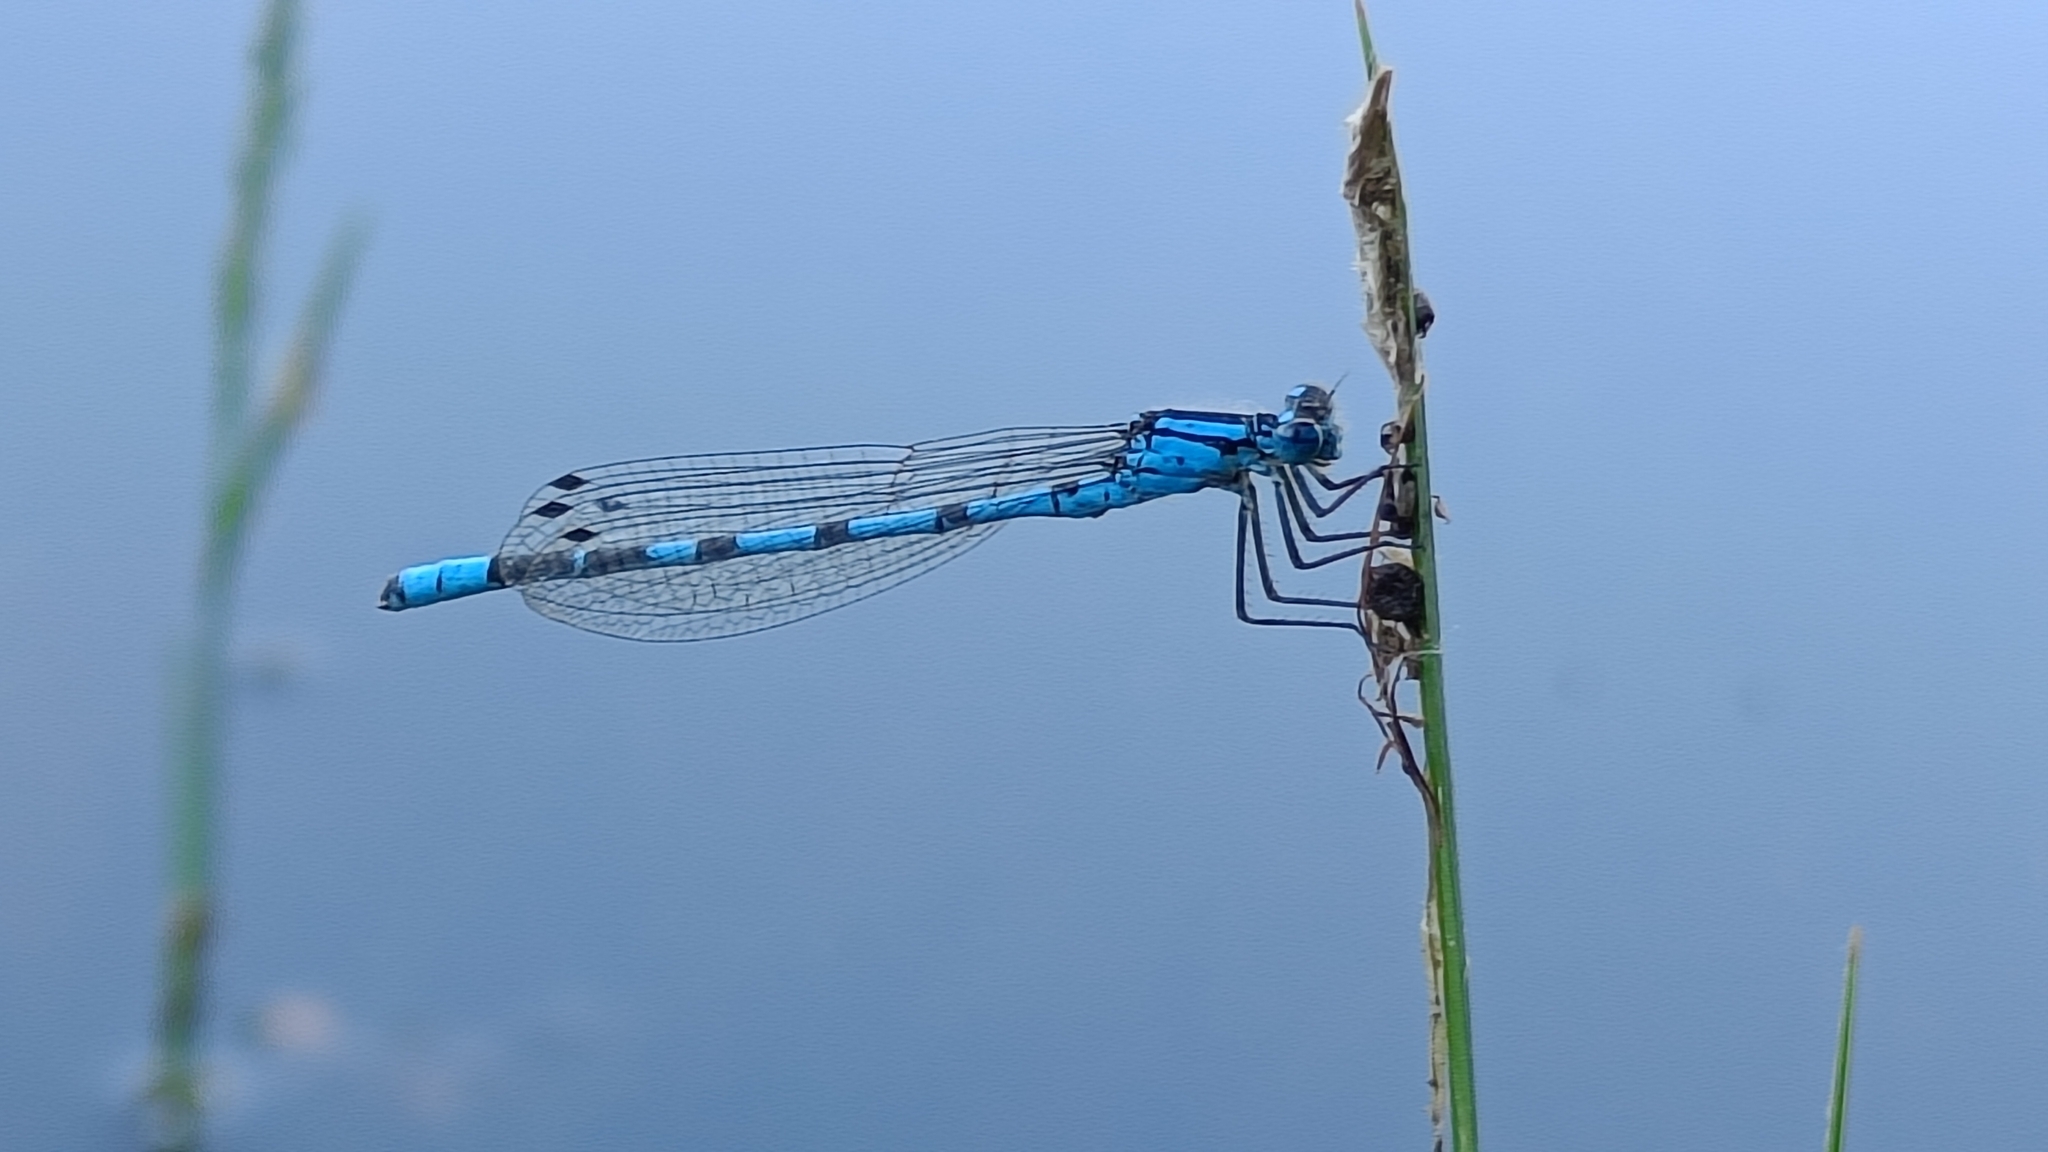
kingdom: Animalia
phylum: Arthropoda
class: Insecta
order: Odonata
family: Coenagrionidae
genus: Enallagma
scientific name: Enallagma cyathigerum
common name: Common blue damselfly
